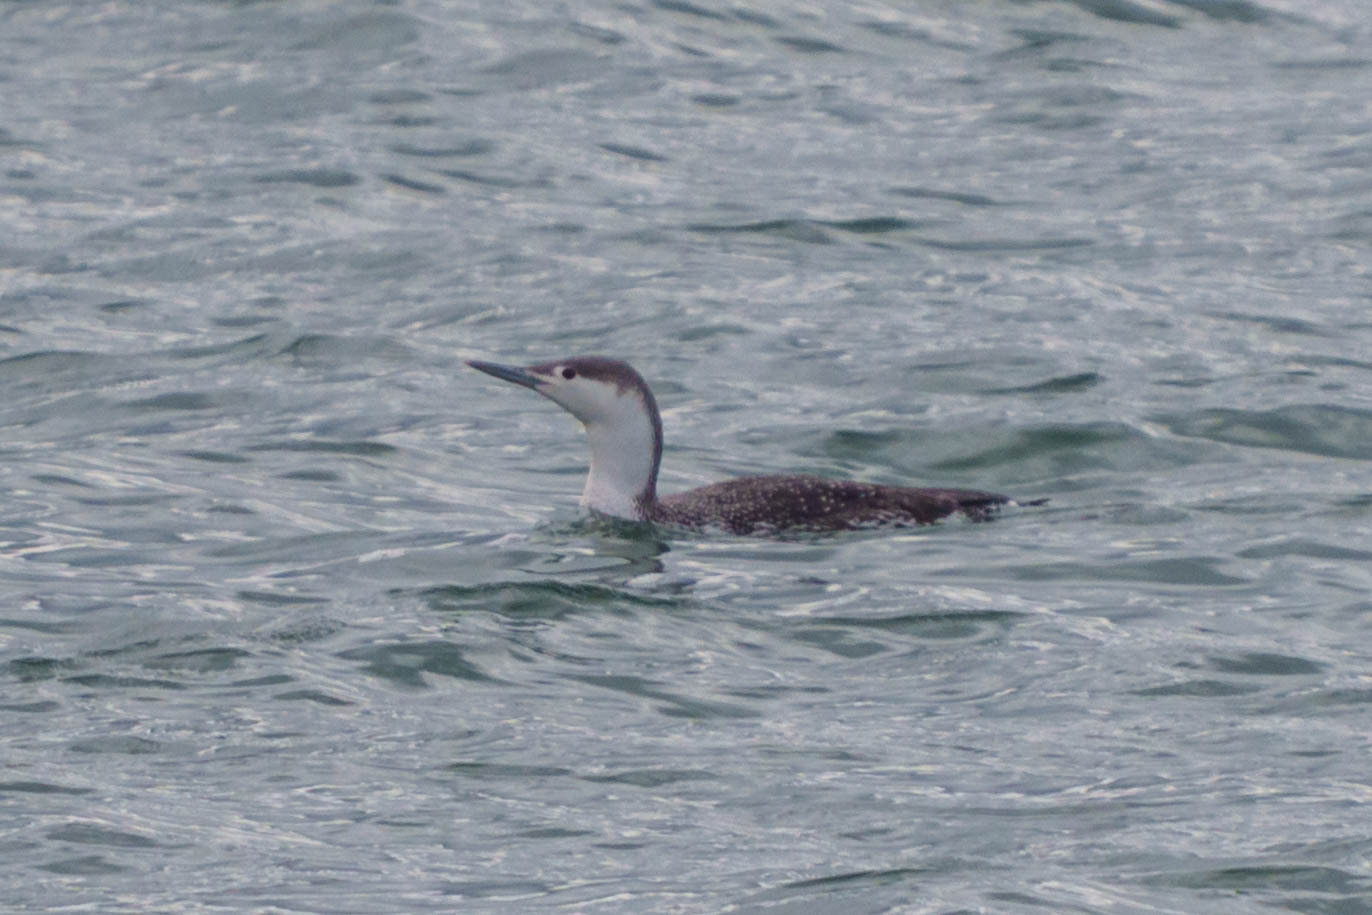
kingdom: Animalia
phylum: Chordata
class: Aves
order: Gaviiformes
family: Gaviidae
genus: Gavia
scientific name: Gavia stellata
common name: Red-throated loon
